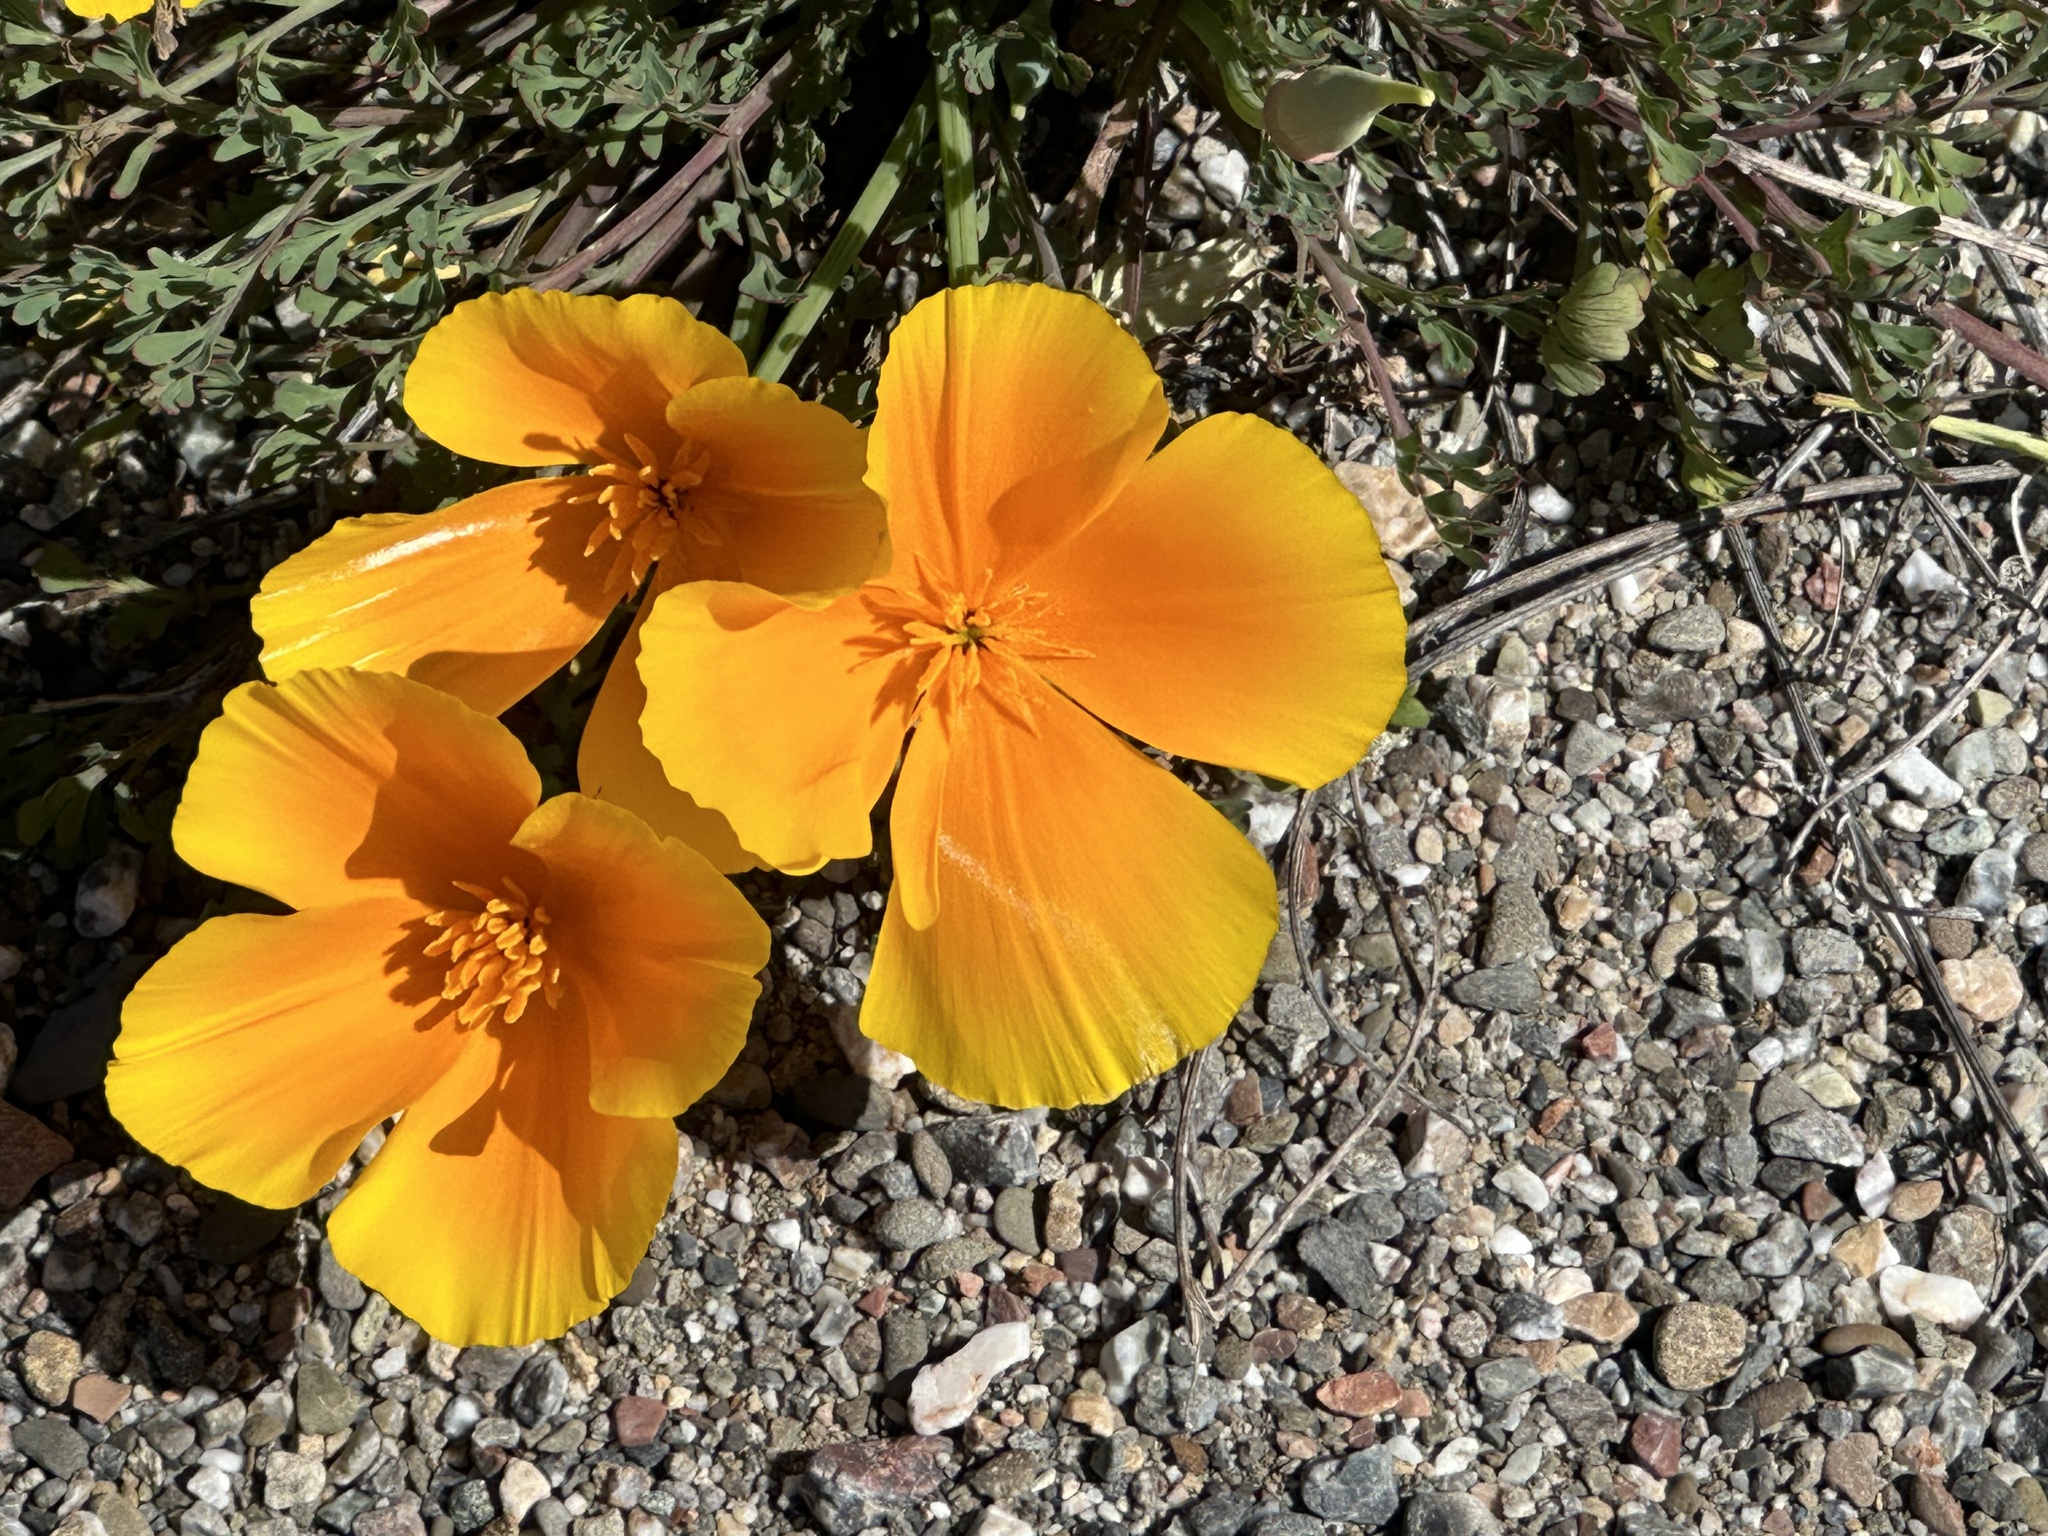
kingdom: Plantae
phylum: Tracheophyta
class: Magnoliopsida
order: Ranunculales
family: Papaveraceae
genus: Eschscholzia
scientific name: Eschscholzia californica
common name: California poppy
